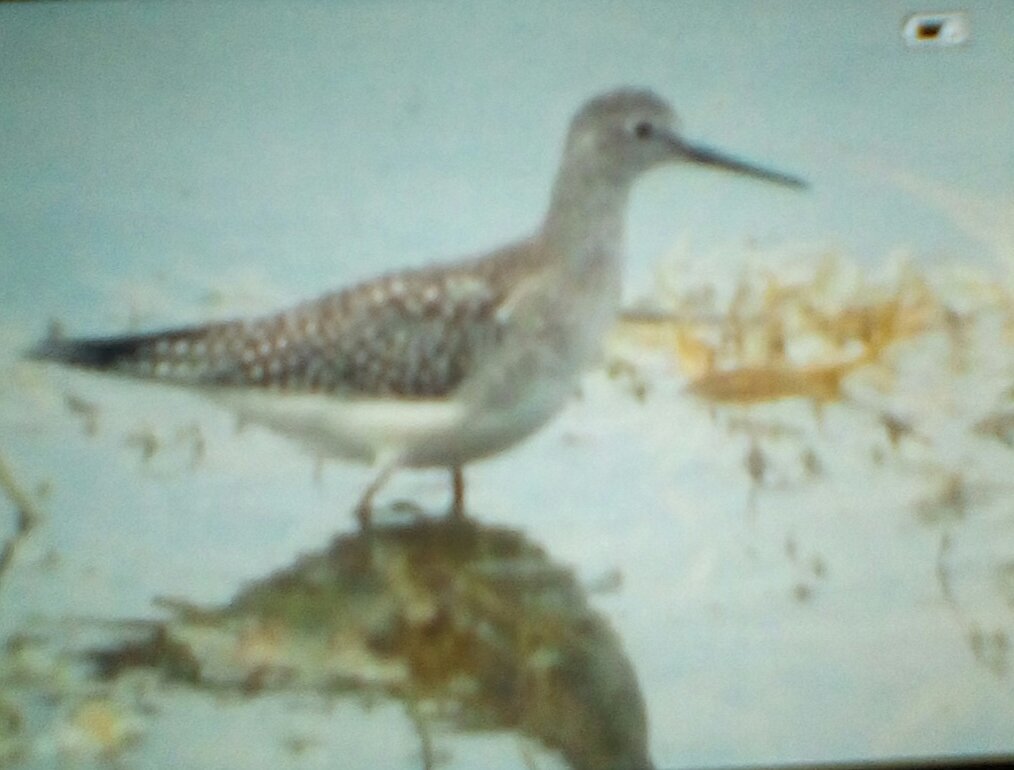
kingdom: Animalia
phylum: Chordata
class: Aves
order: Charadriiformes
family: Scolopacidae
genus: Tringa
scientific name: Tringa flavipes
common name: Lesser yellowlegs
